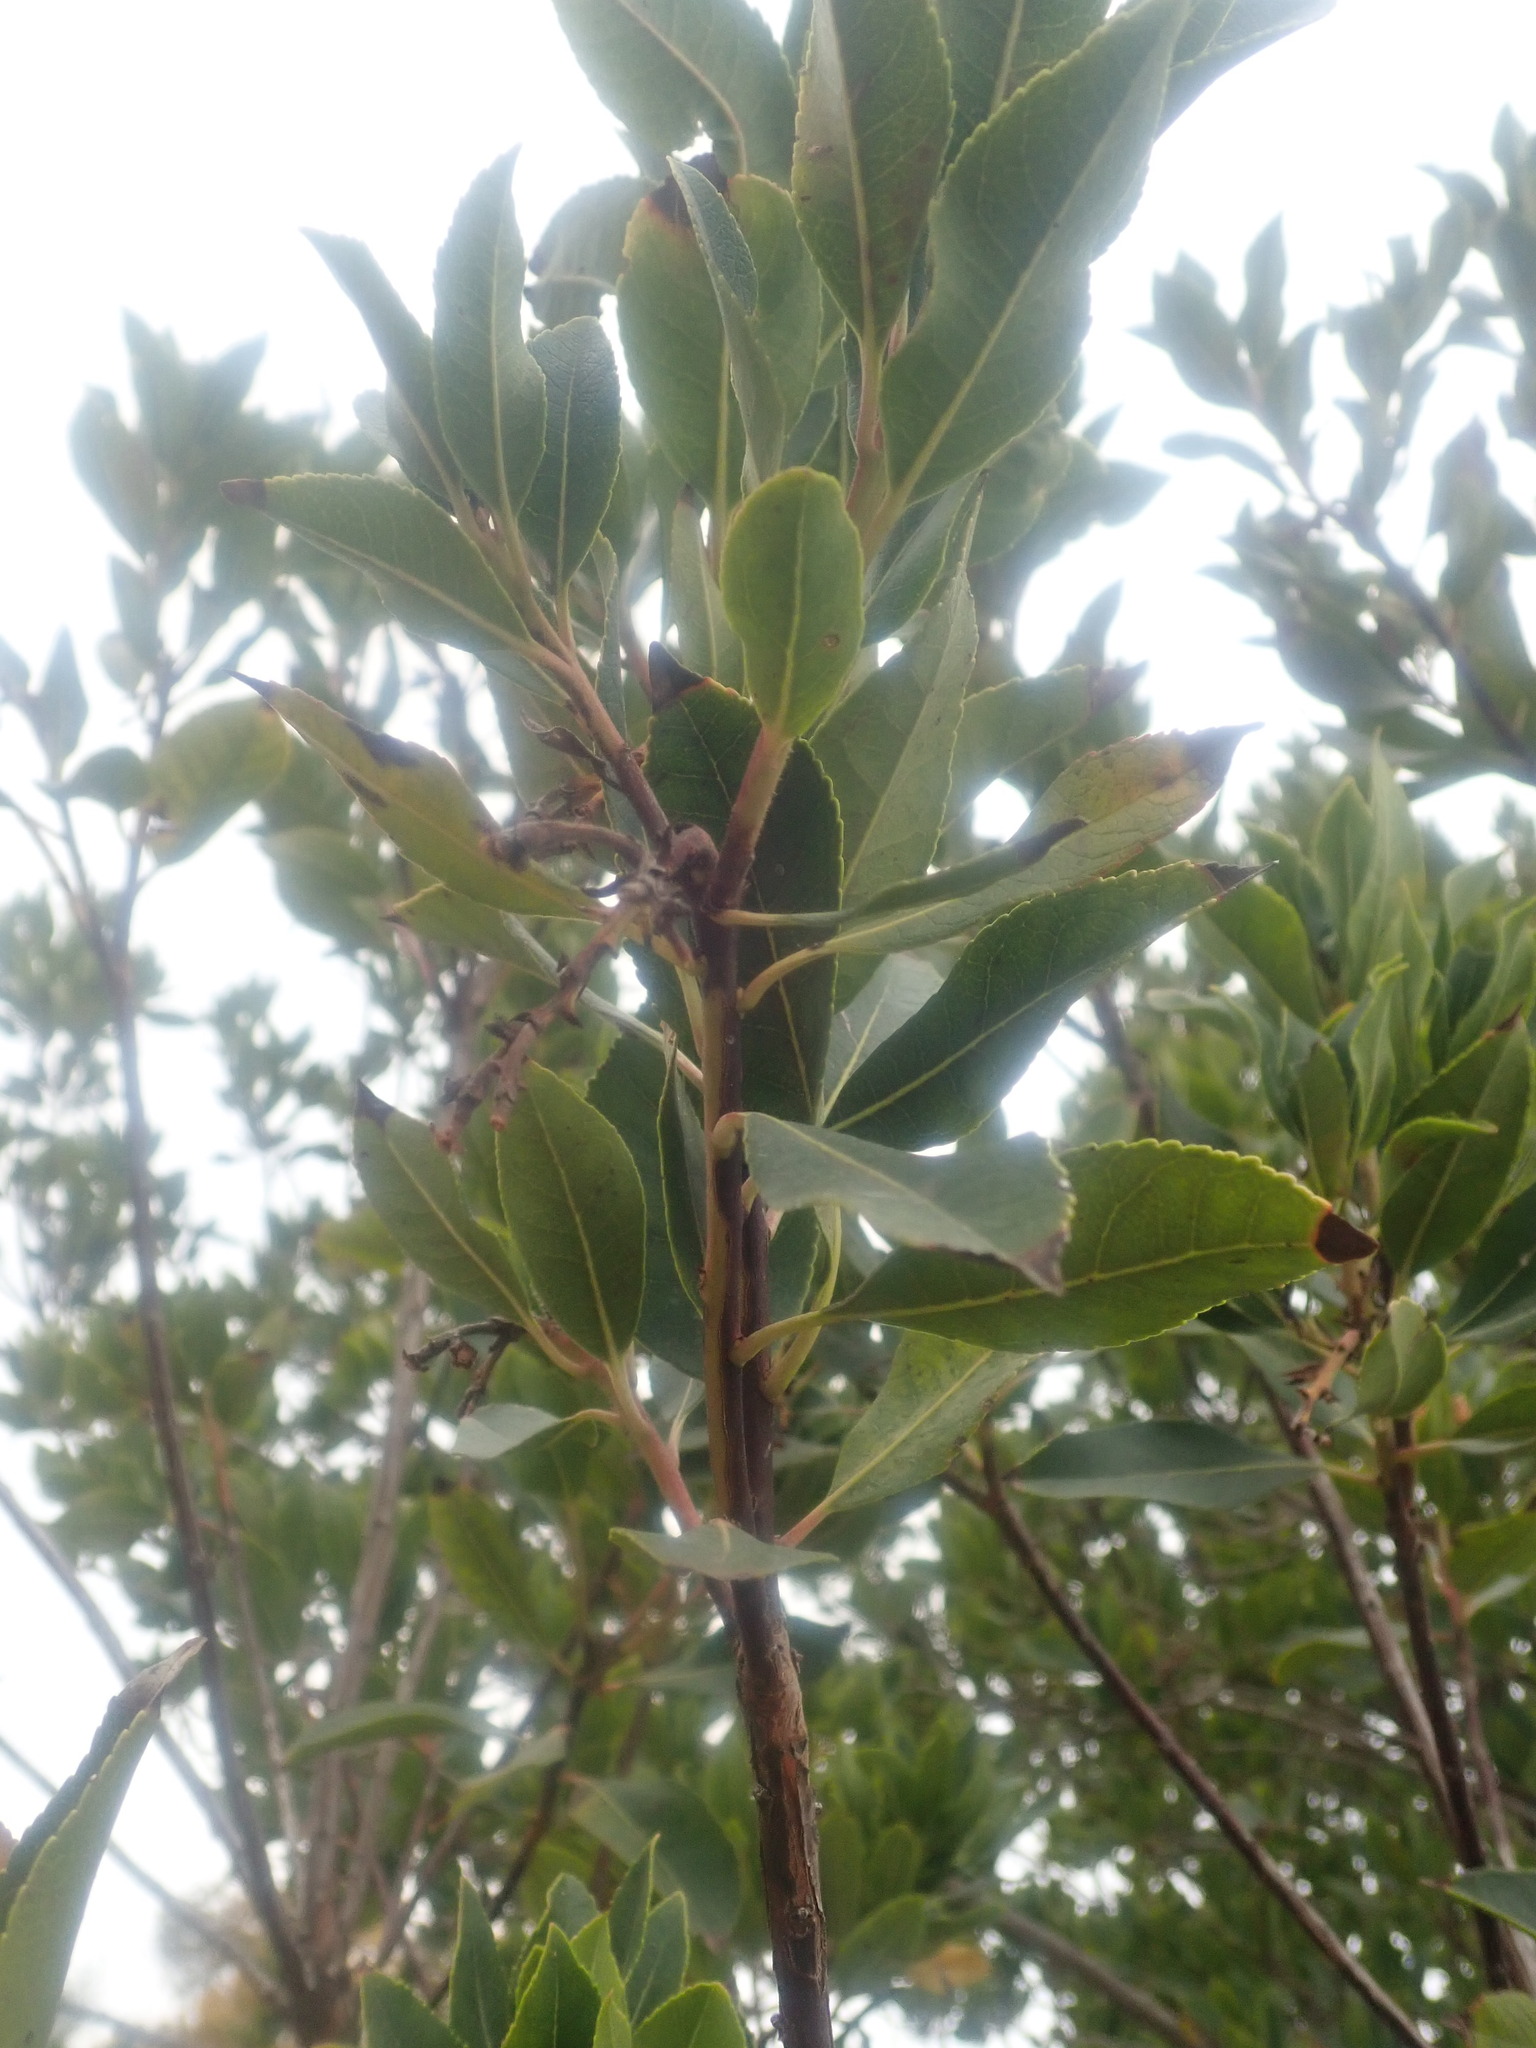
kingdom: Plantae
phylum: Tracheophyta
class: Magnoliopsida
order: Ericales
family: Ericaceae
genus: Arbutus
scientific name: Arbutus unedo
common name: Strawberry-tree
